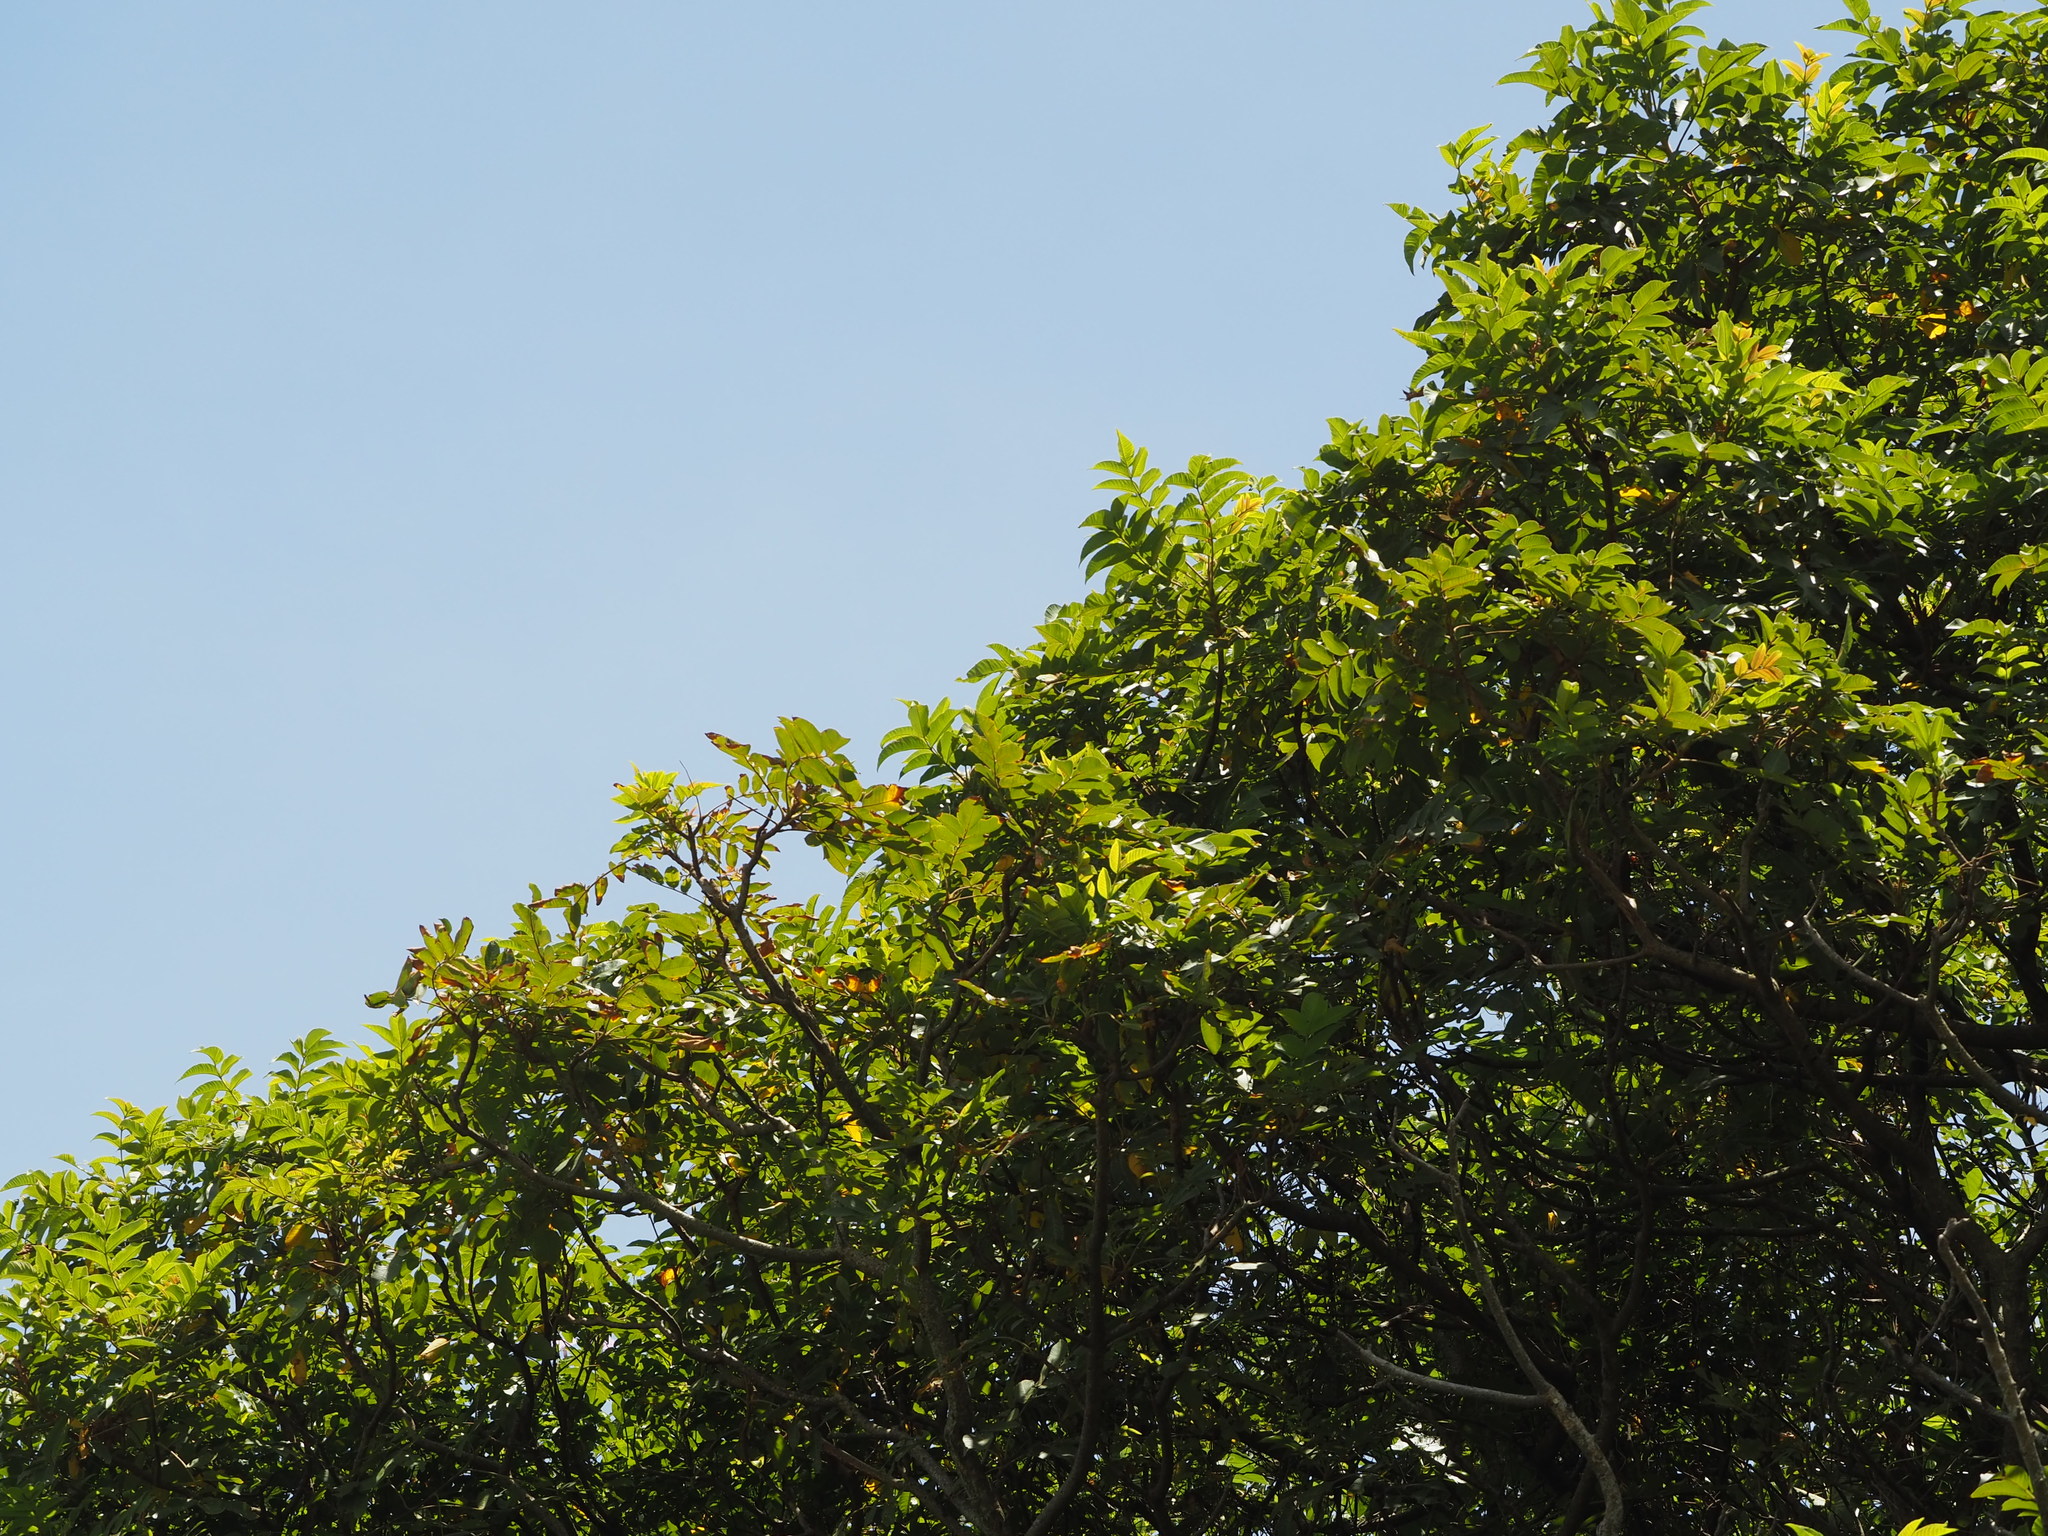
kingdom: Plantae
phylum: Tracheophyta
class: Magnoliopsida
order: Sapindales
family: Anacardiaceae
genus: Rhus
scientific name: Rhus chinensis
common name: Chinese gall
